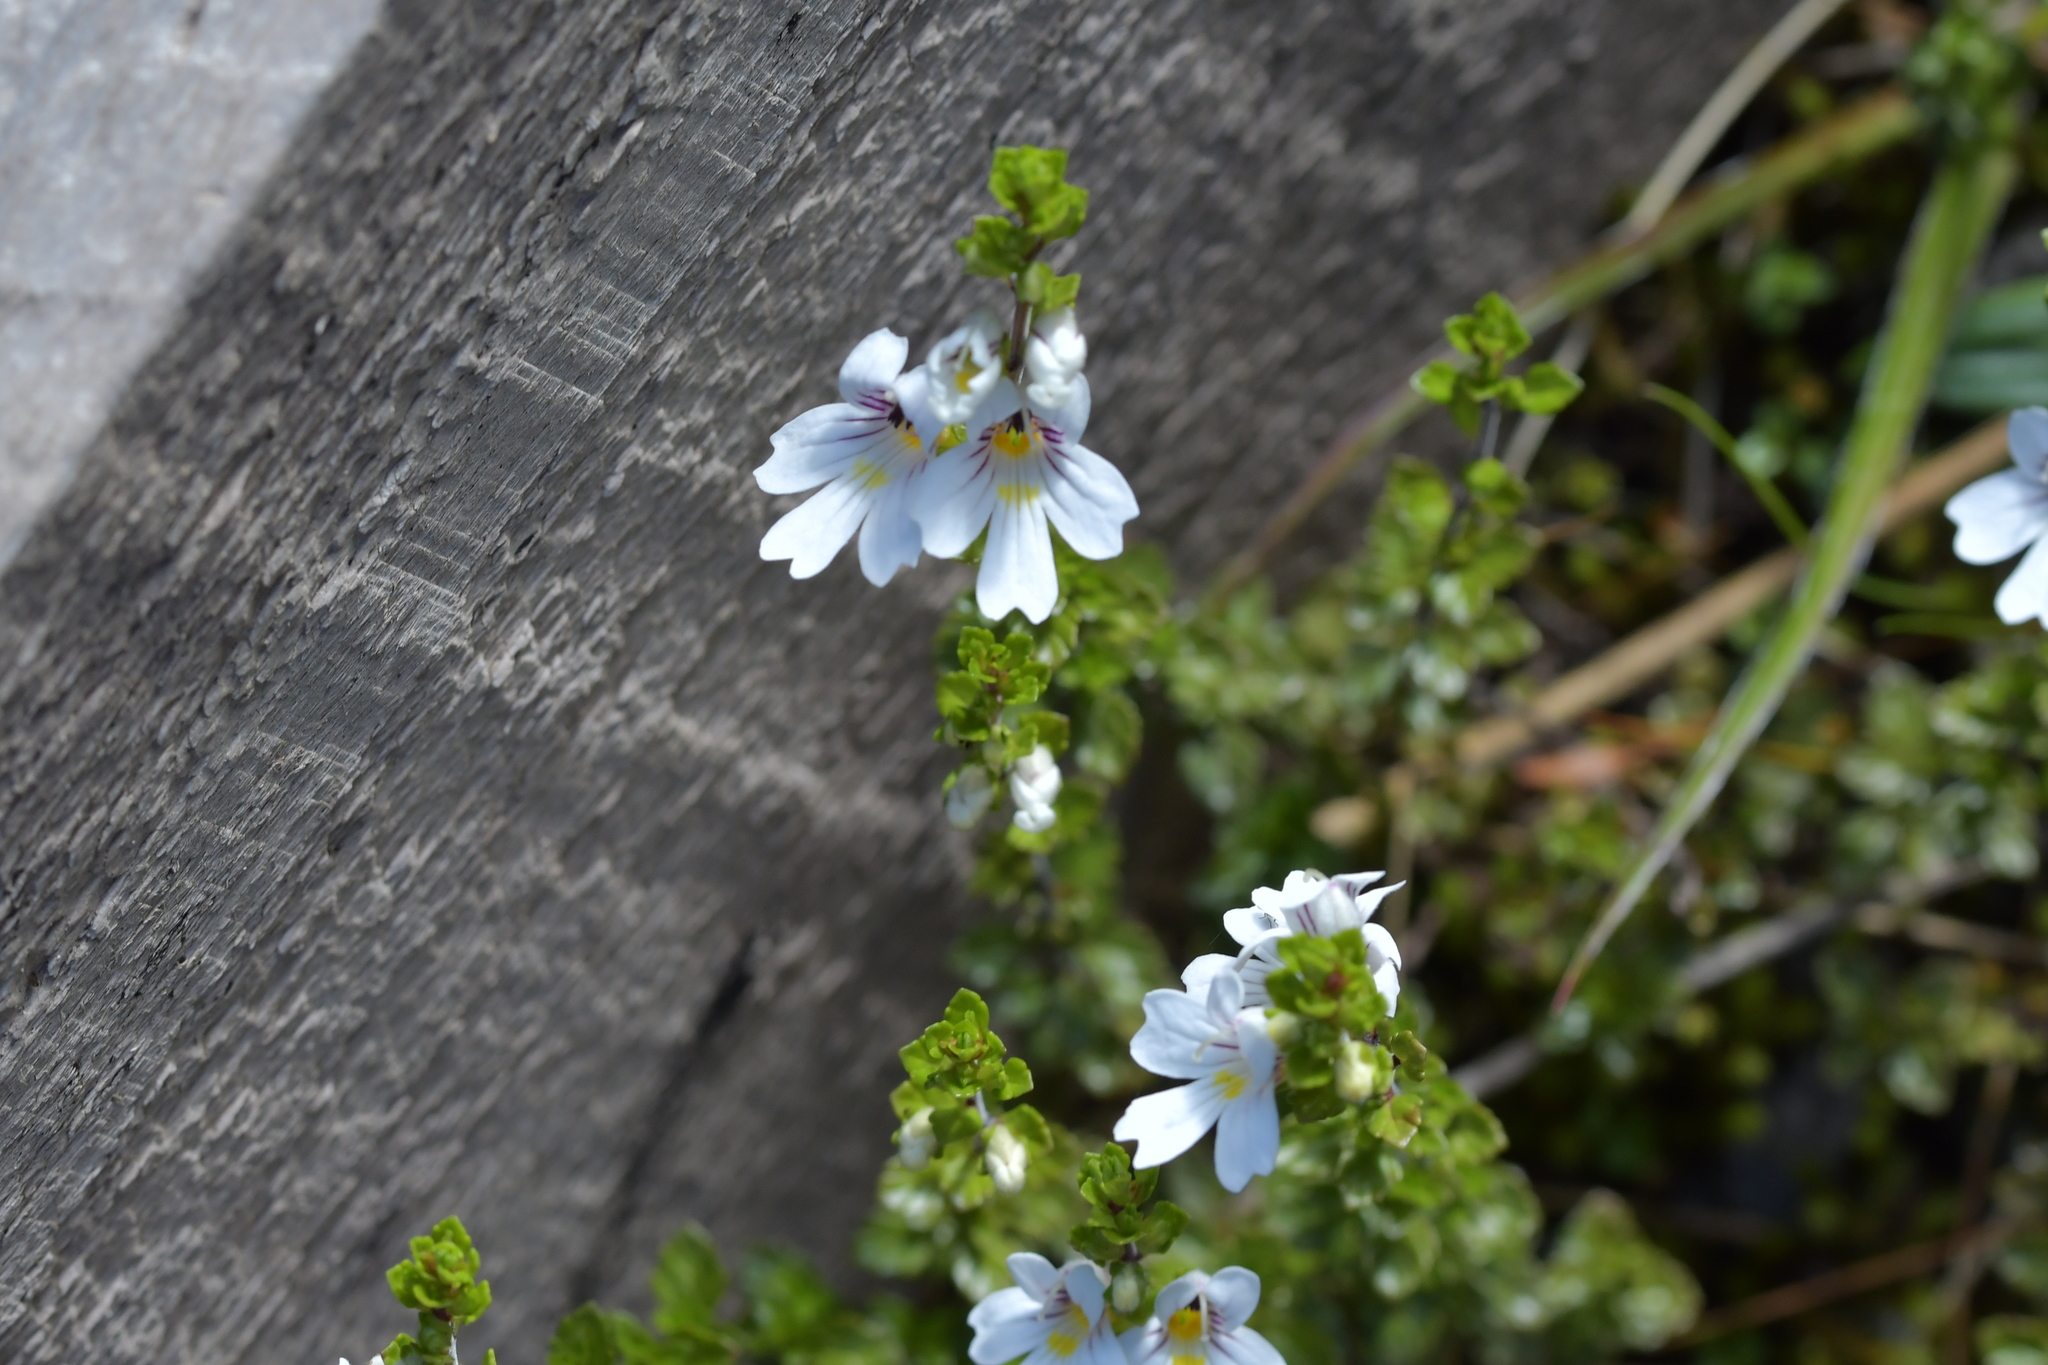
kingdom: Plantae
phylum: Tracheophyta
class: Magnoliopsida
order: Lamiales
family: Orobanchaceae
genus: Euphrasia
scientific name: Euphrasia cuneata
